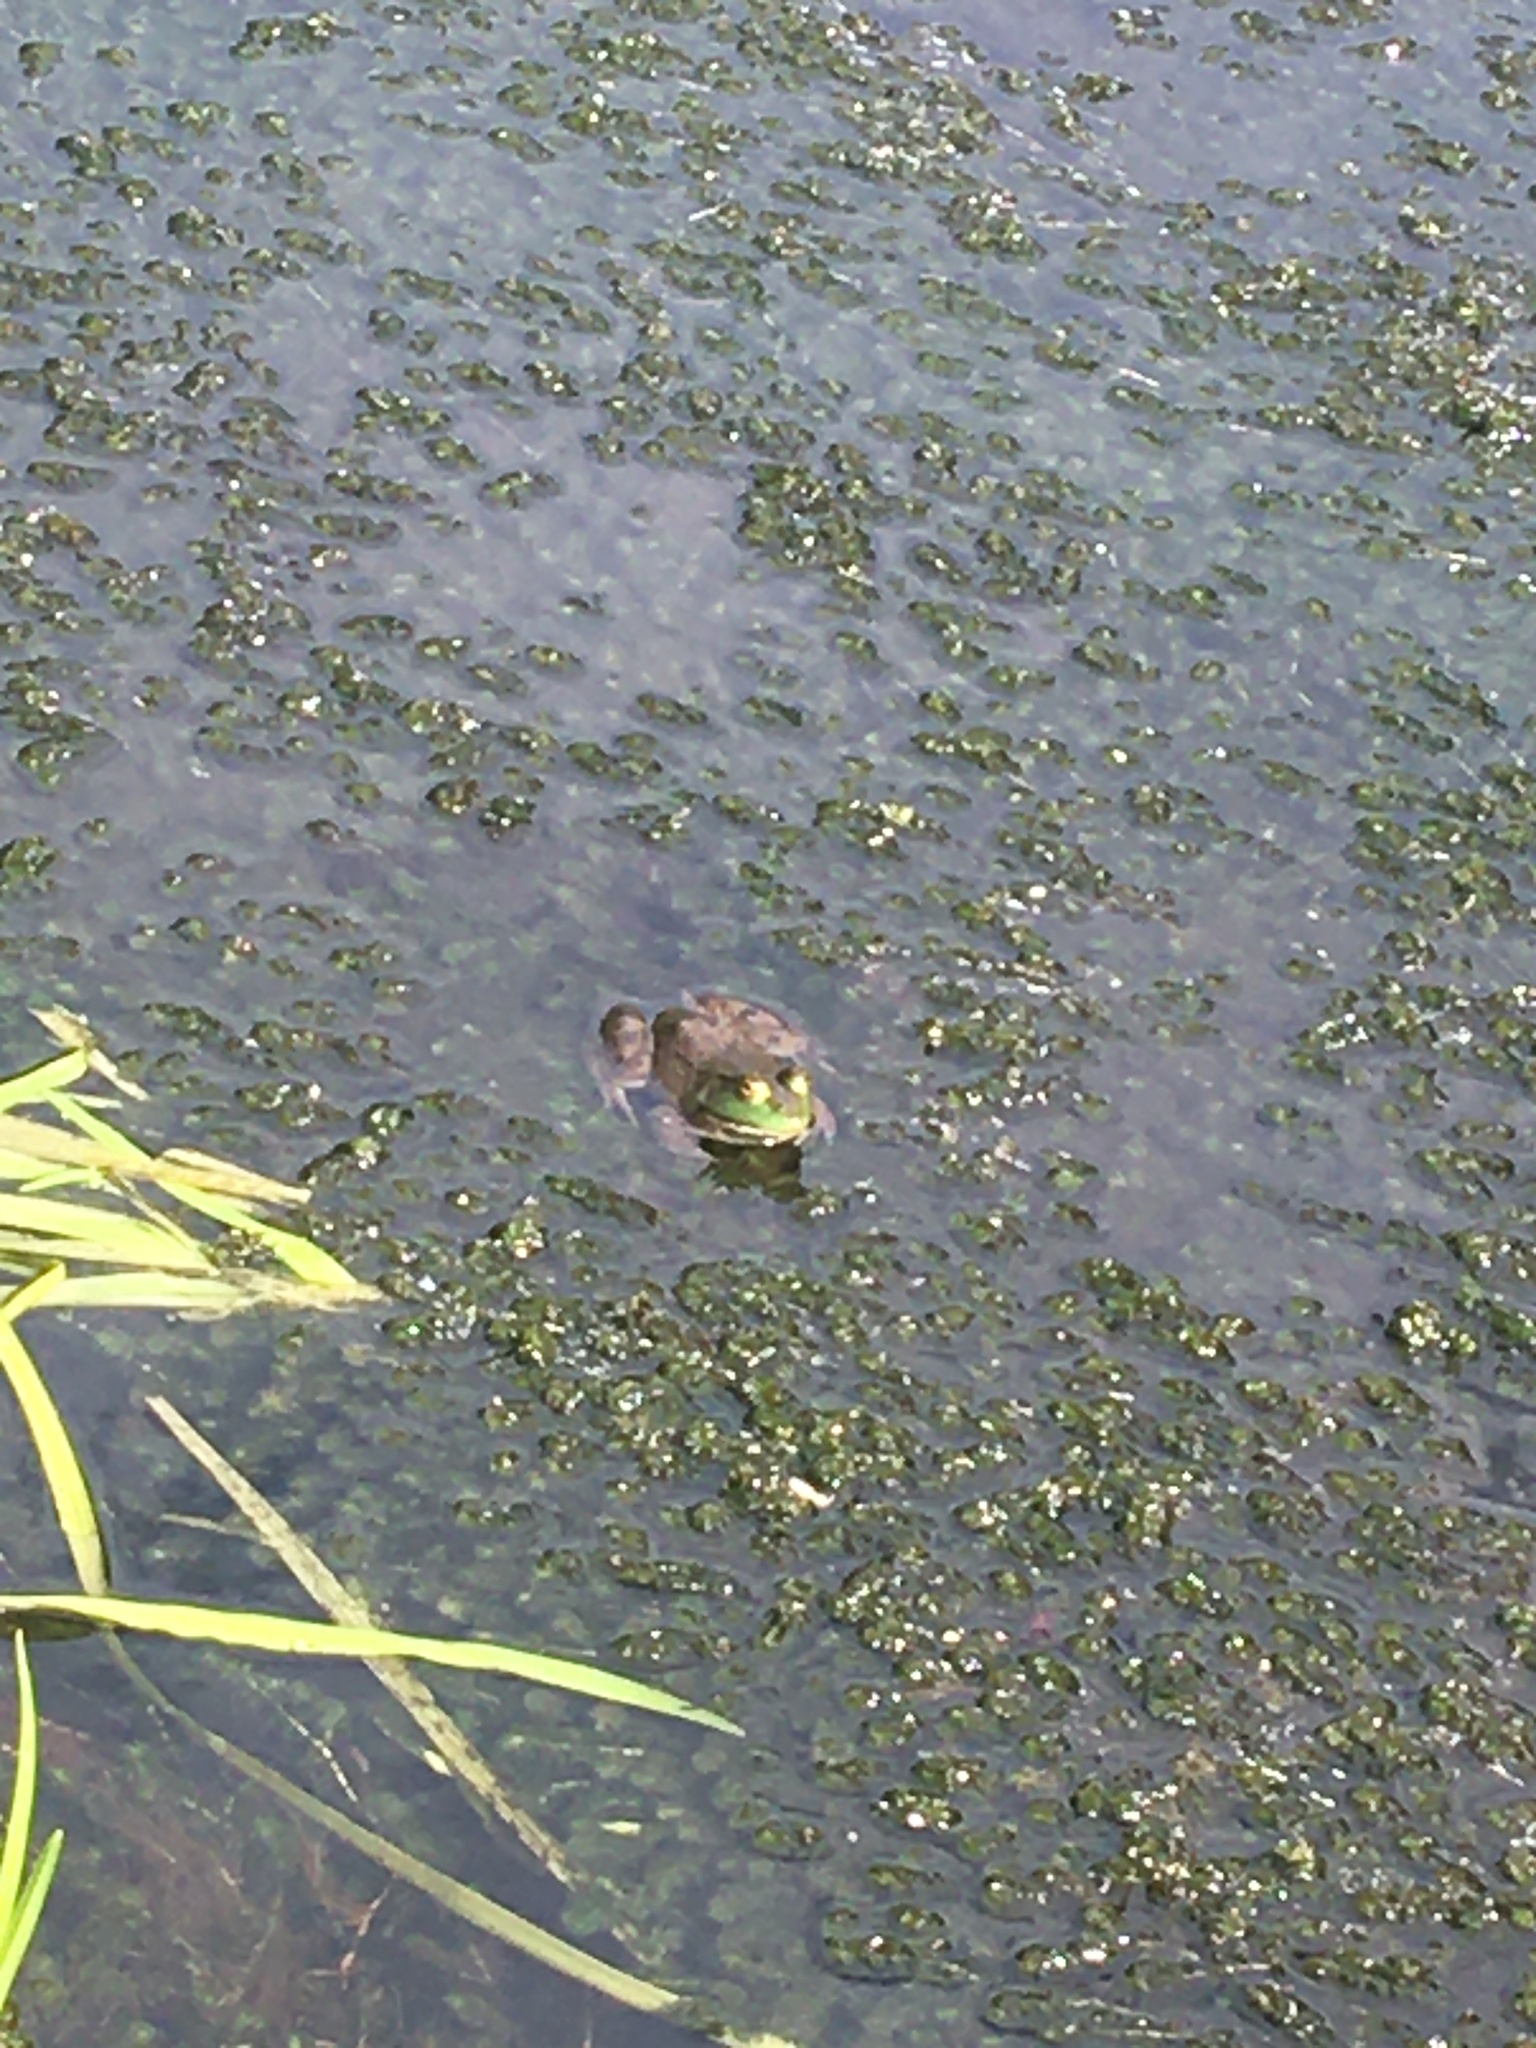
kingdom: Animalia
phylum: Chordata
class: Amphibia
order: Anura
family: Ranidae
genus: Lithobates
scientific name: Lithobates catesbeianus
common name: American bullfrog
